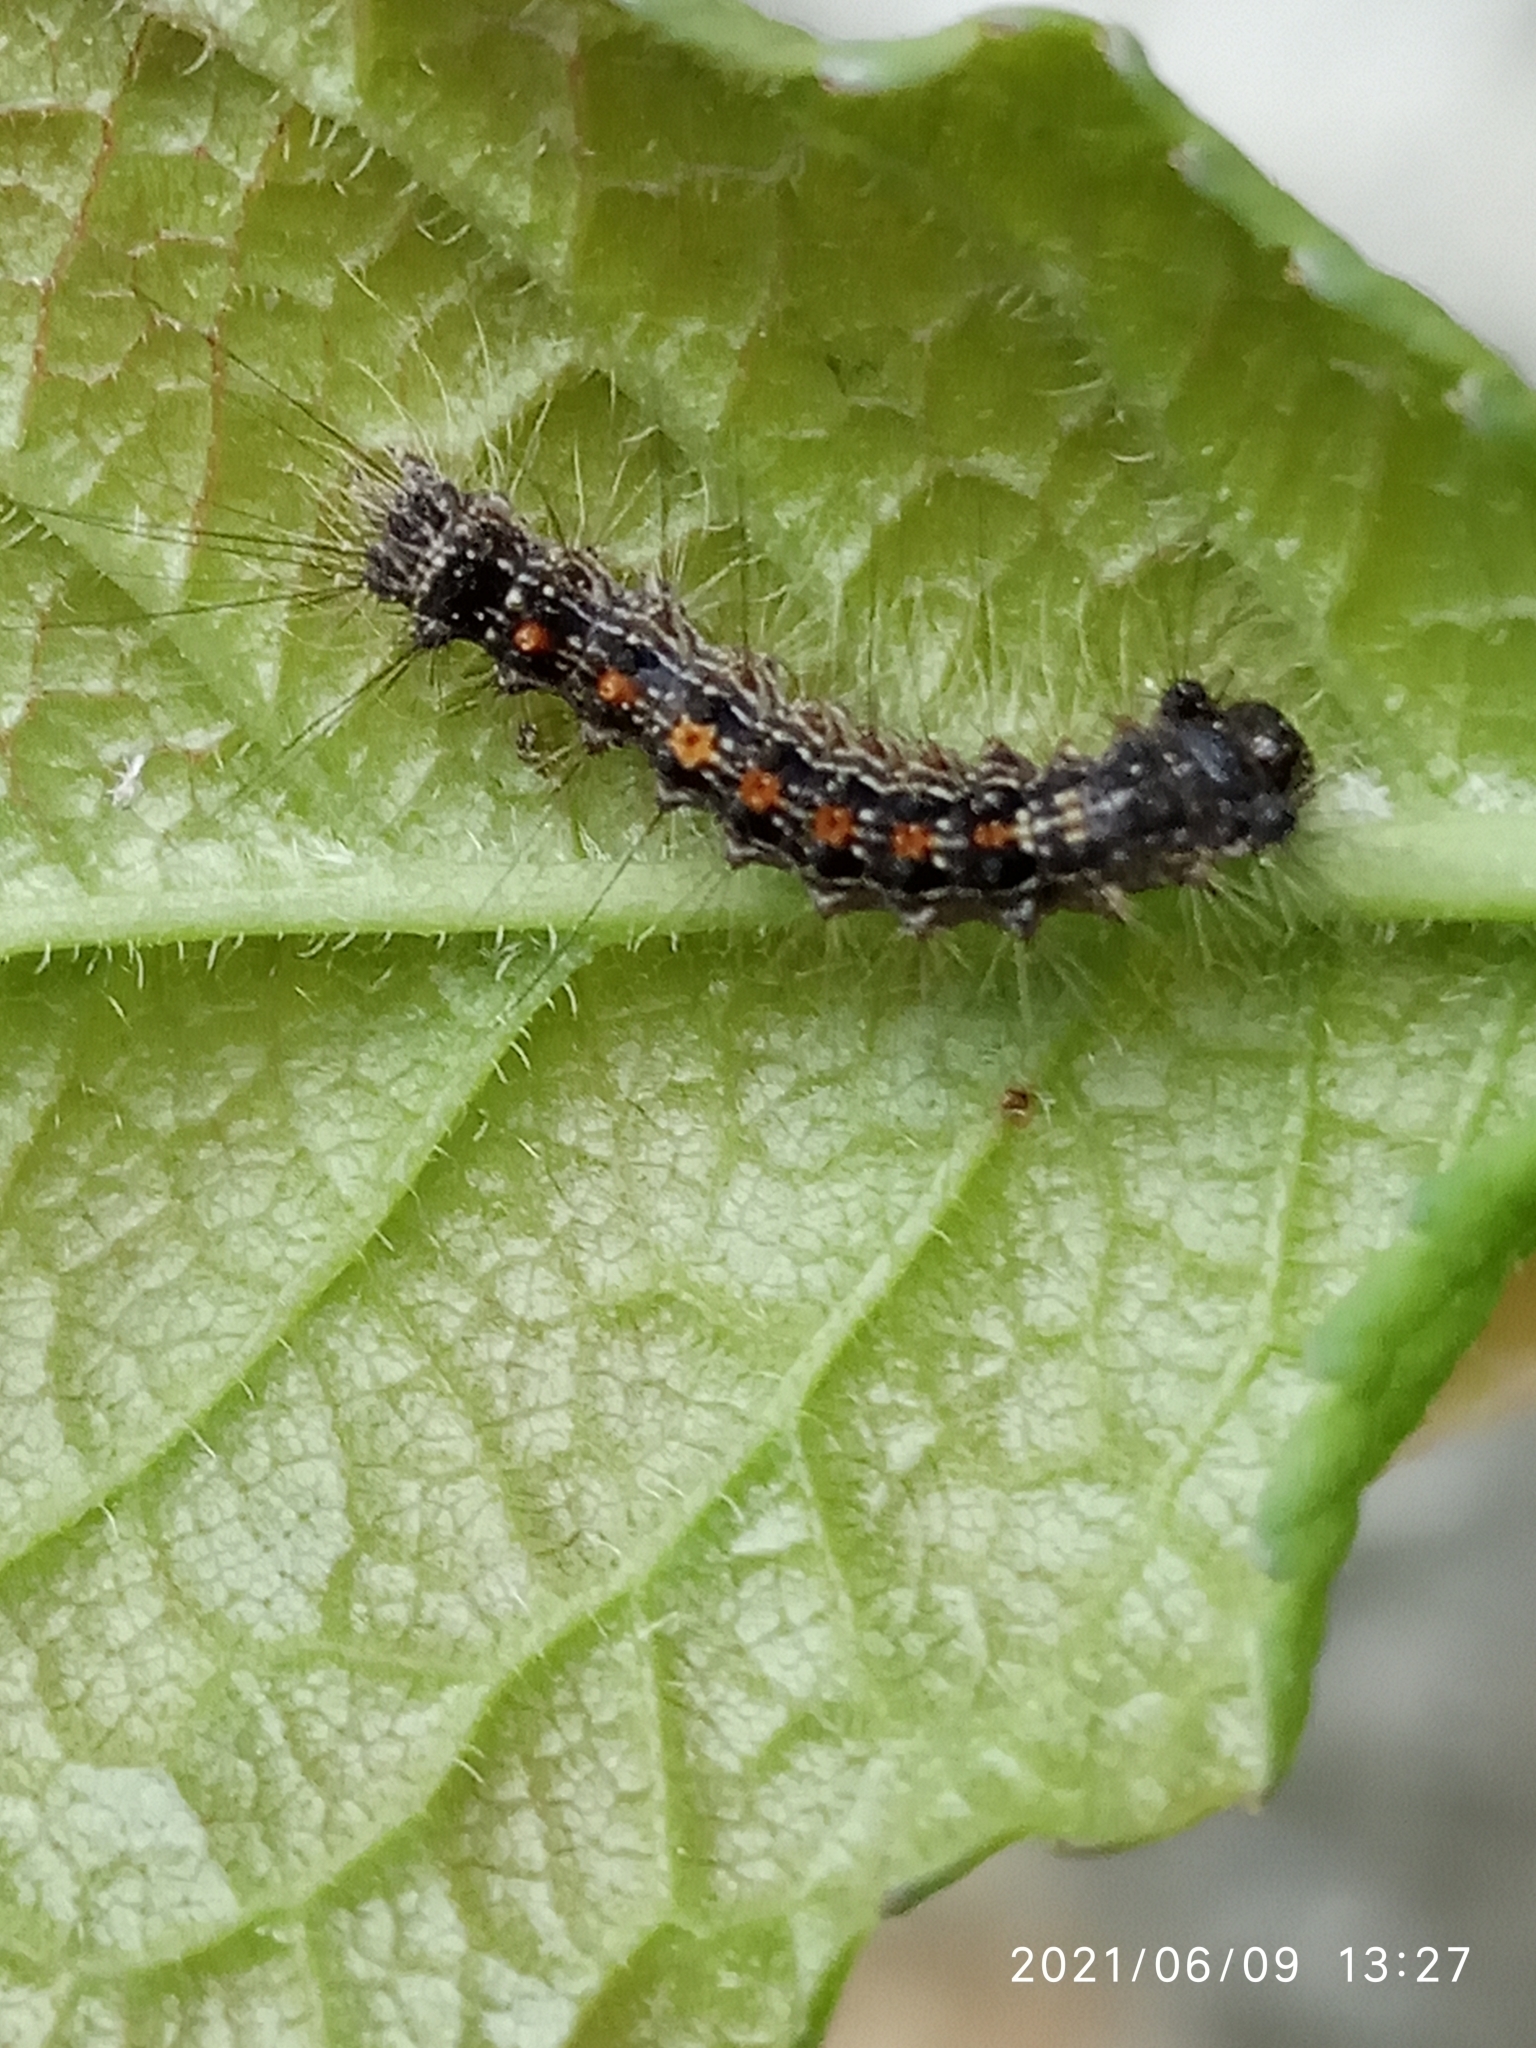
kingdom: Animalia
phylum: Arthropoda
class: Insecta
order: Lepidoptera
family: Erebidae
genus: Lymantria
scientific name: Lymantria dispar
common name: Gypsy moth
